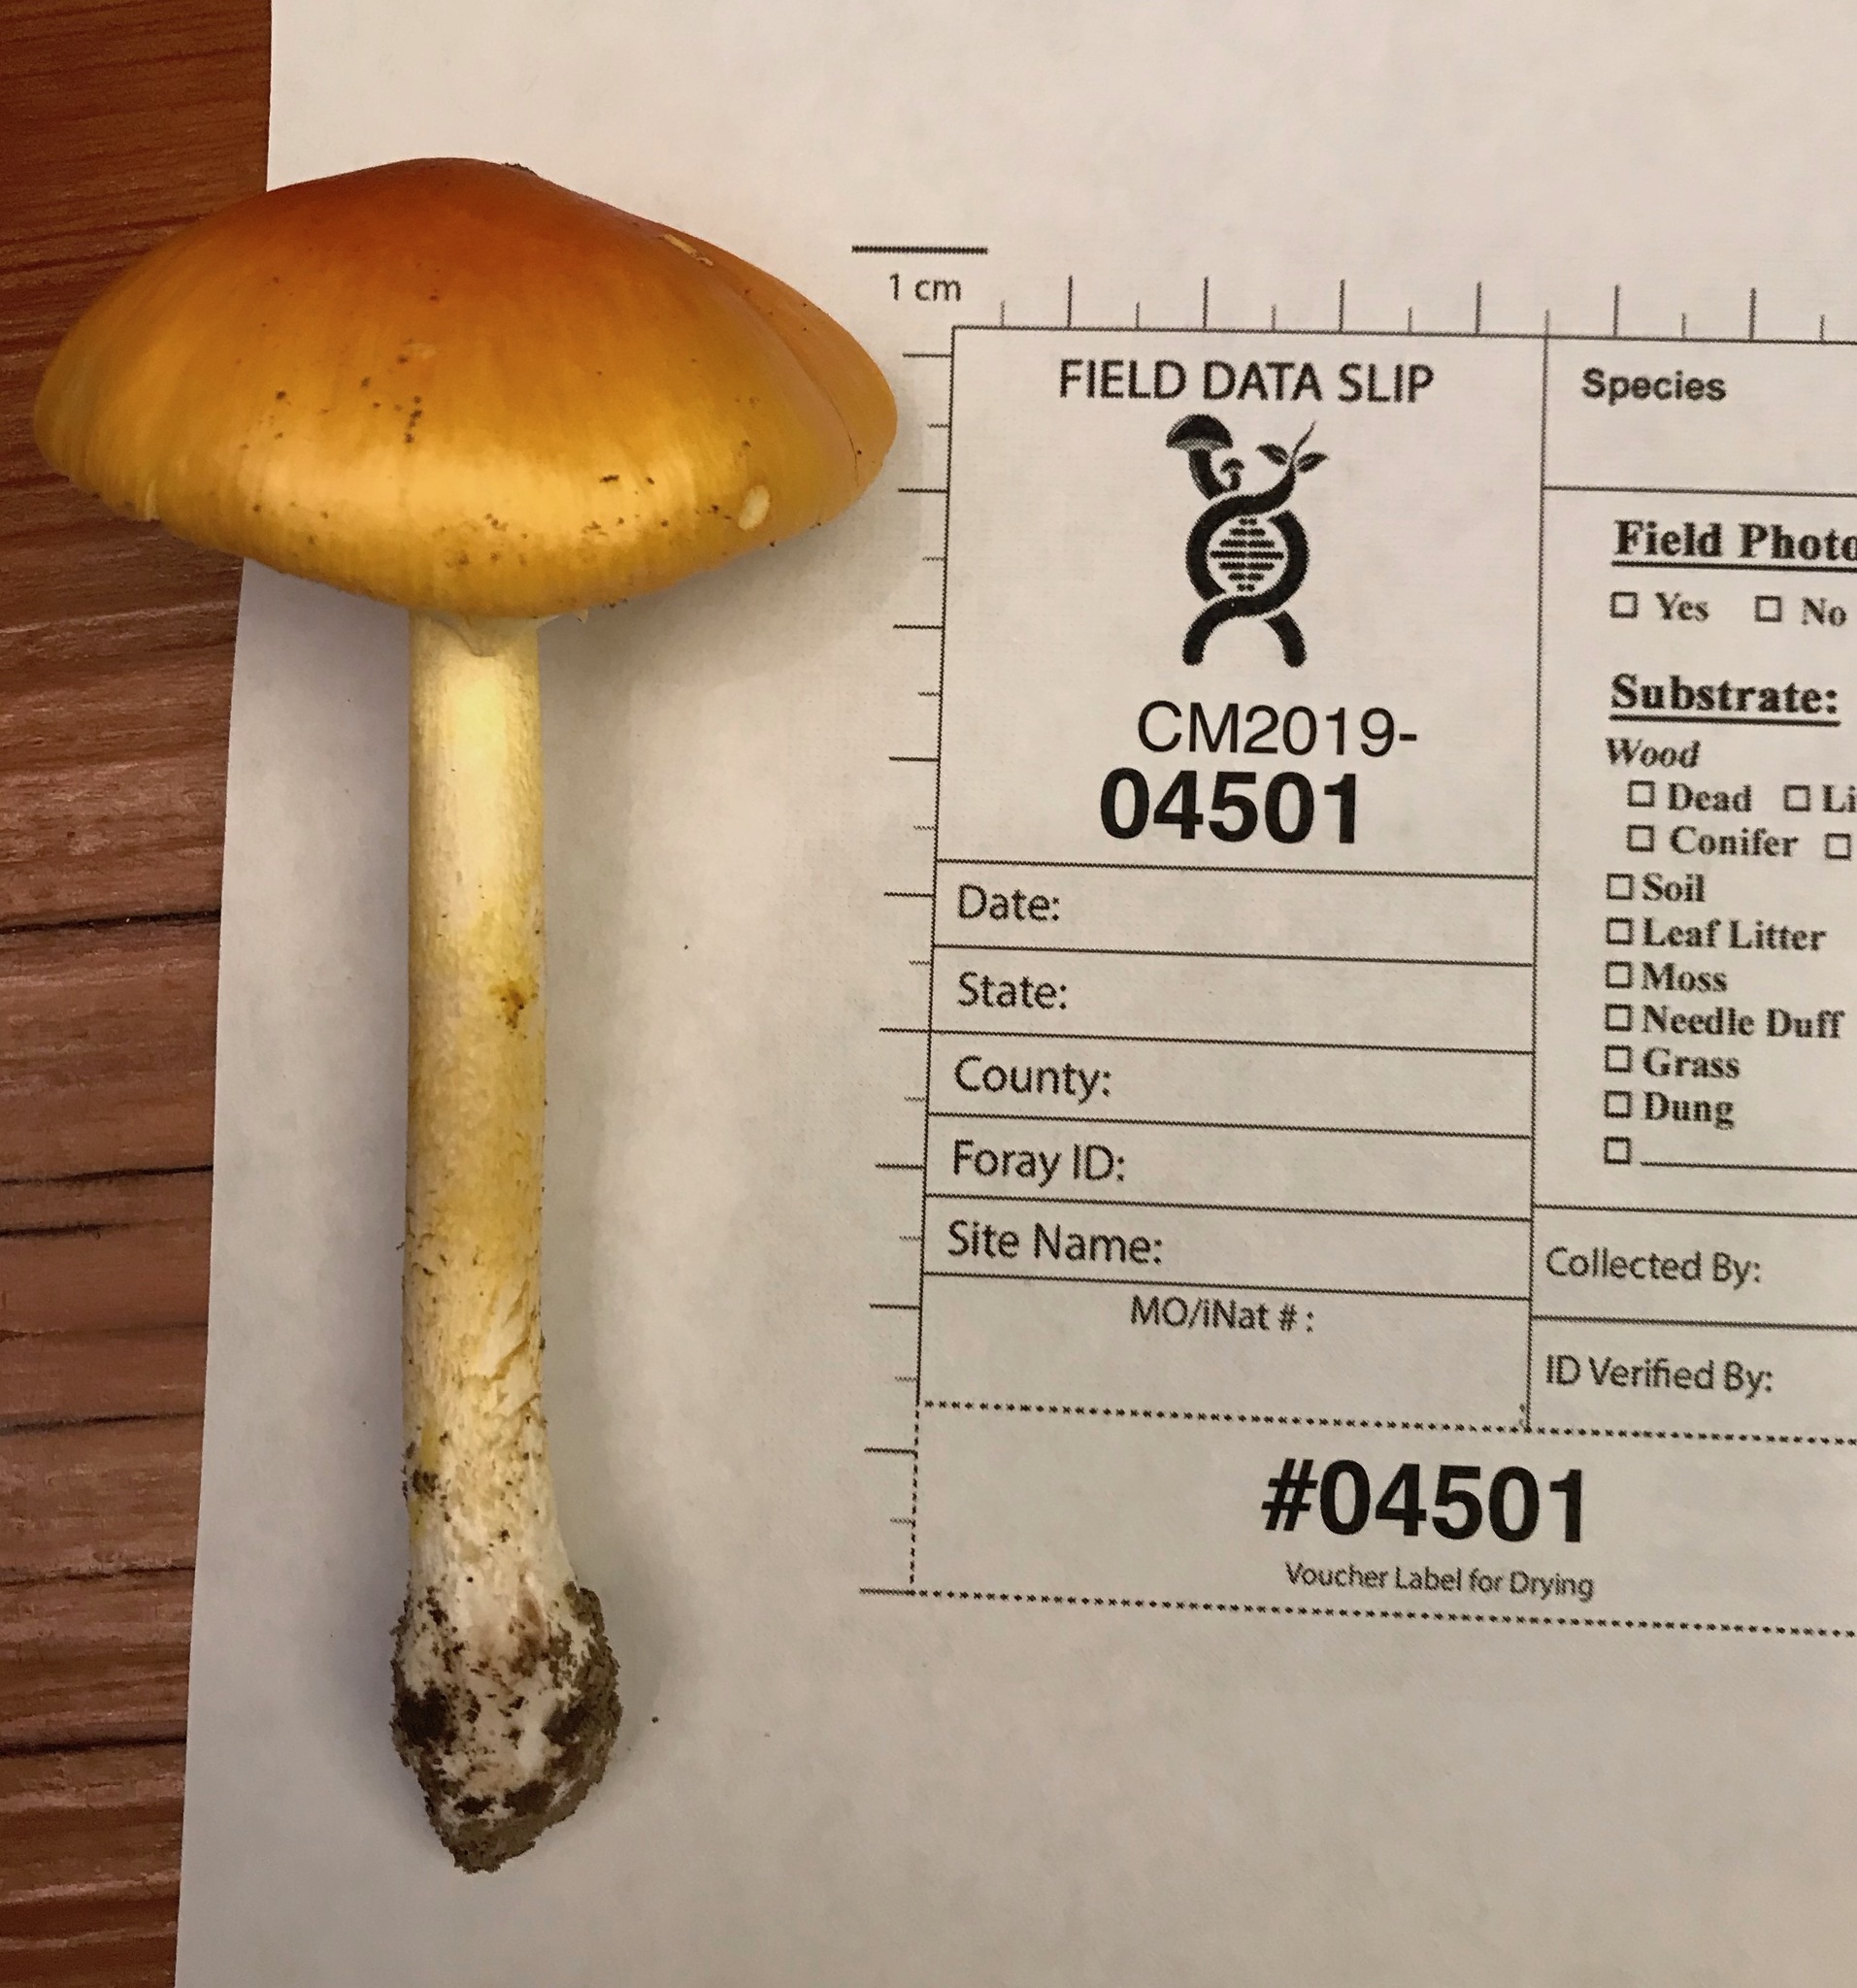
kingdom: Fungi
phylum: Basidiomycota
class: Agaricomycetes
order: Agaricales
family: Amanitaceae
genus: Amanita
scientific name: Amanita flavoconia
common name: Yellow patches
